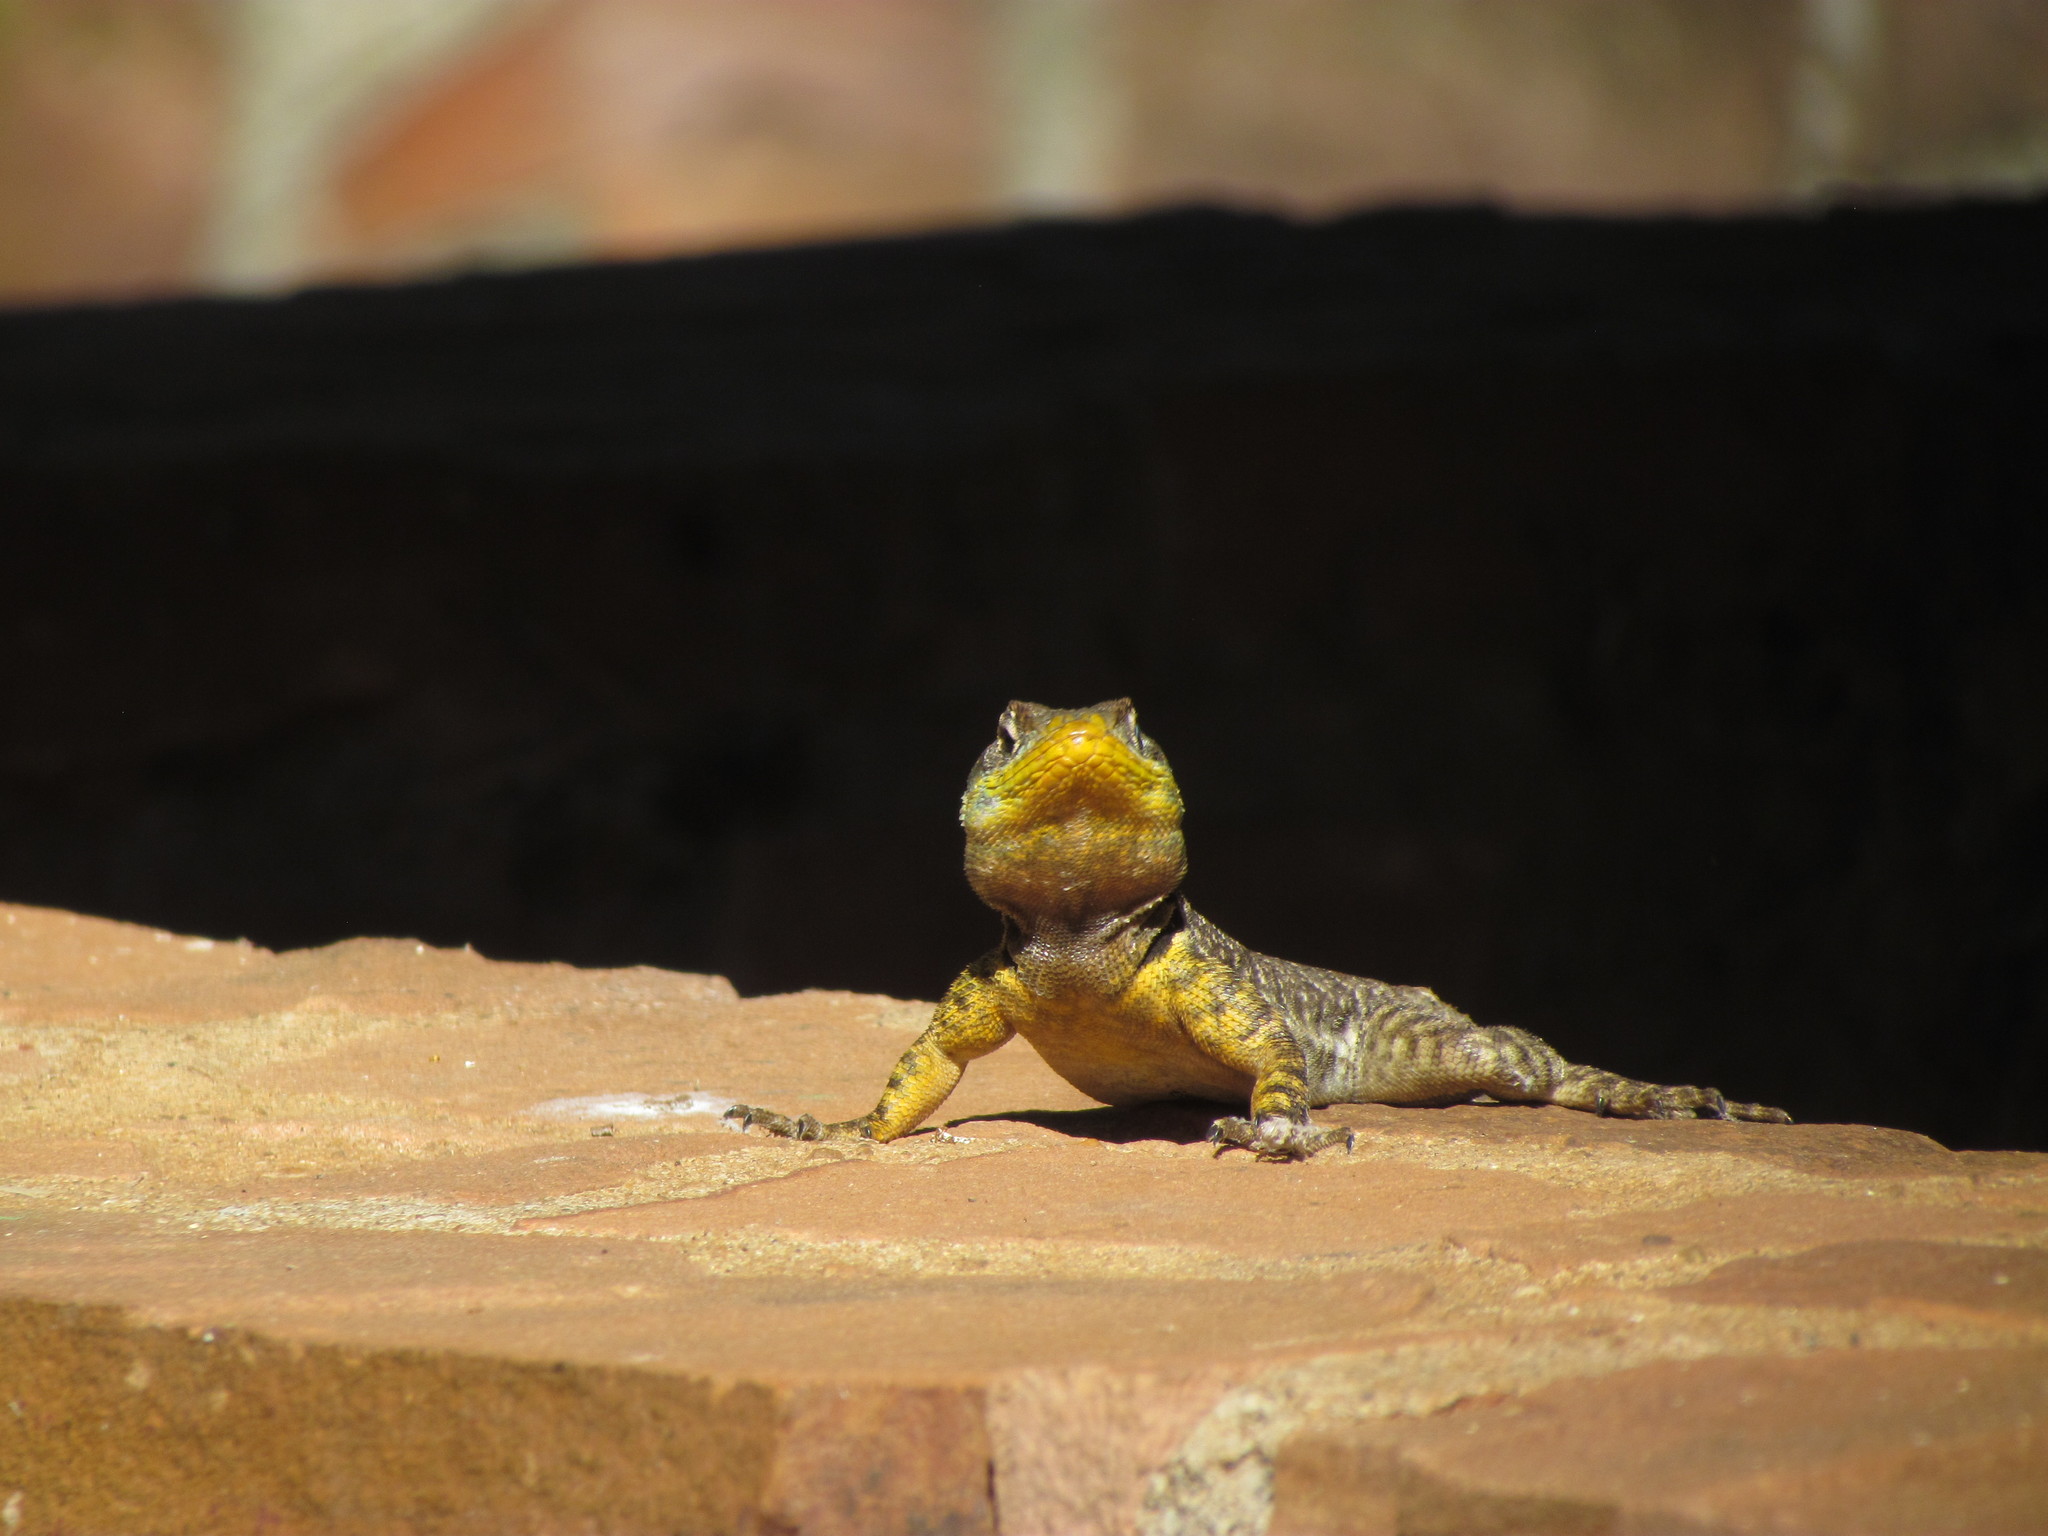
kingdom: Animalia
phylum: Chordata
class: Squamata
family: Tropiduridae
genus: Tropidurus
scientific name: Tropidurus catalanensis
